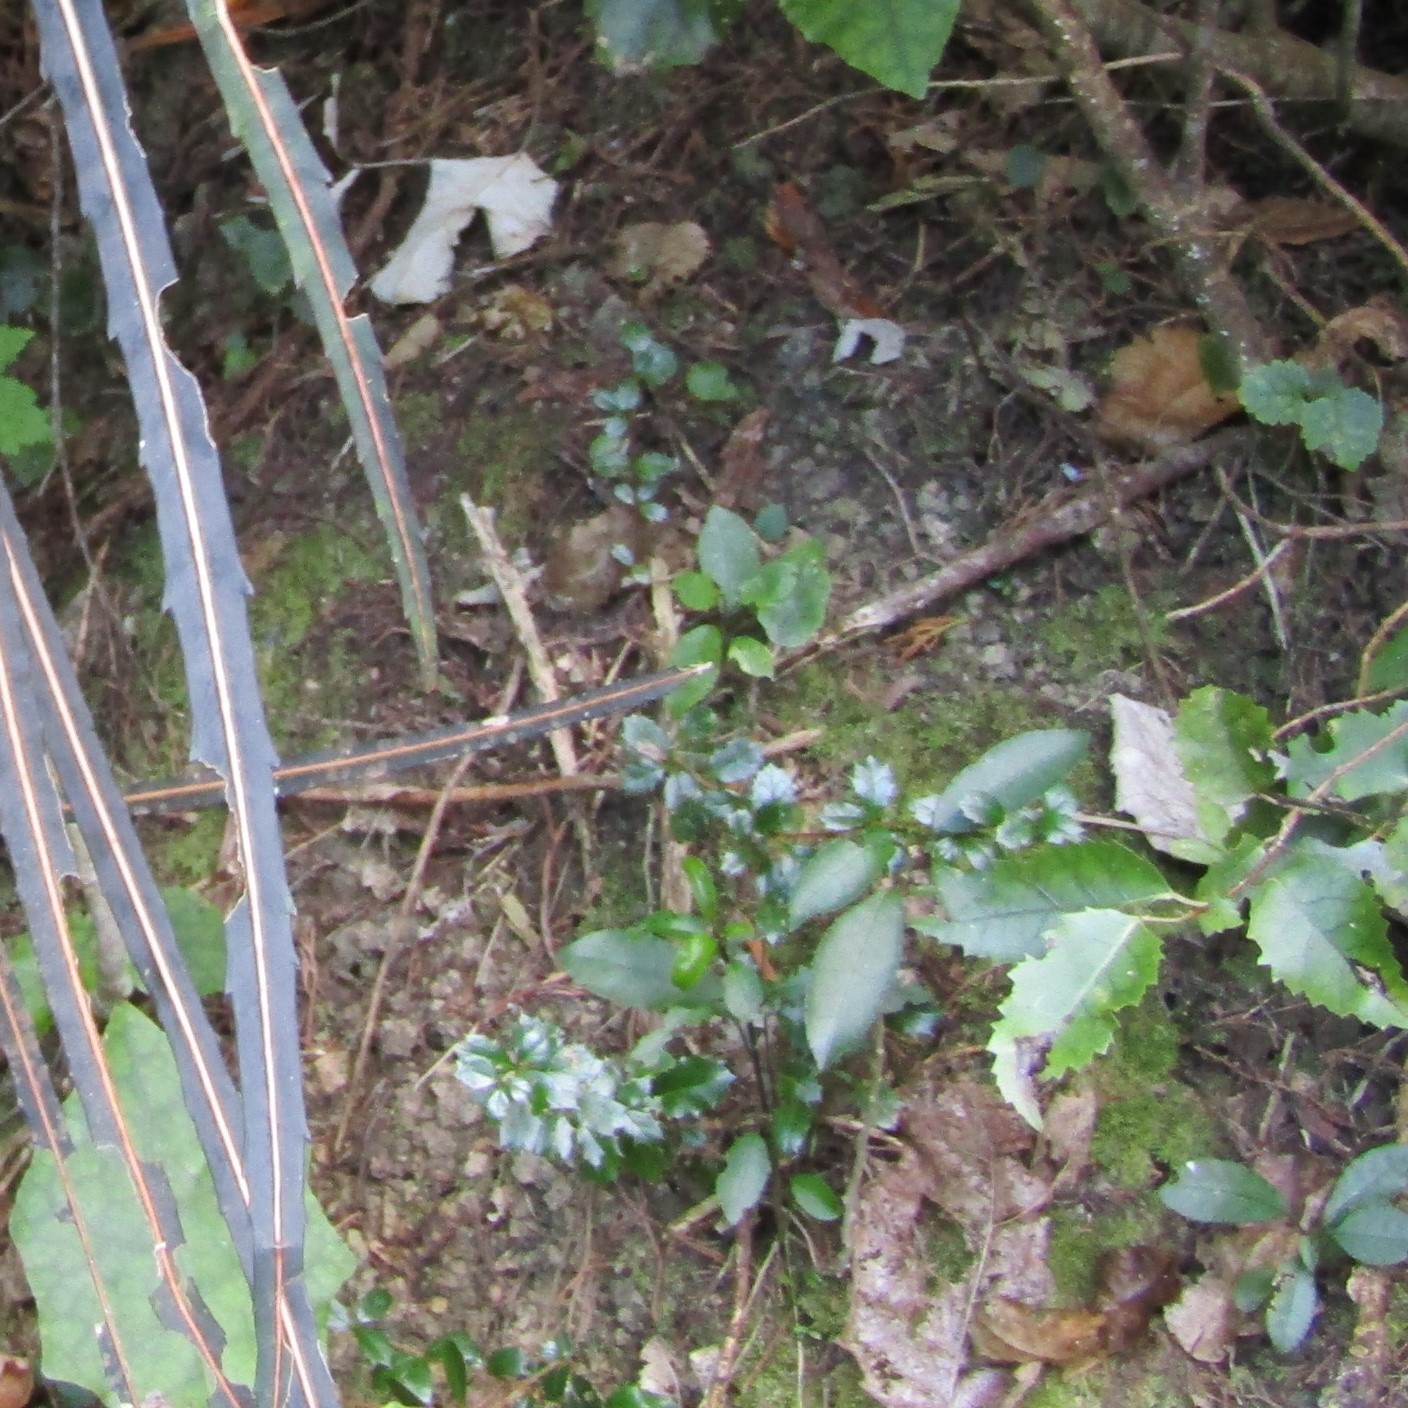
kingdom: Plantae
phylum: Tracheophyta
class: Magnoliopsida
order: Ranunculales
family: Berberidaceae
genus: Berberis
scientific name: Berberis darwinii
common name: Darwin's barberry
